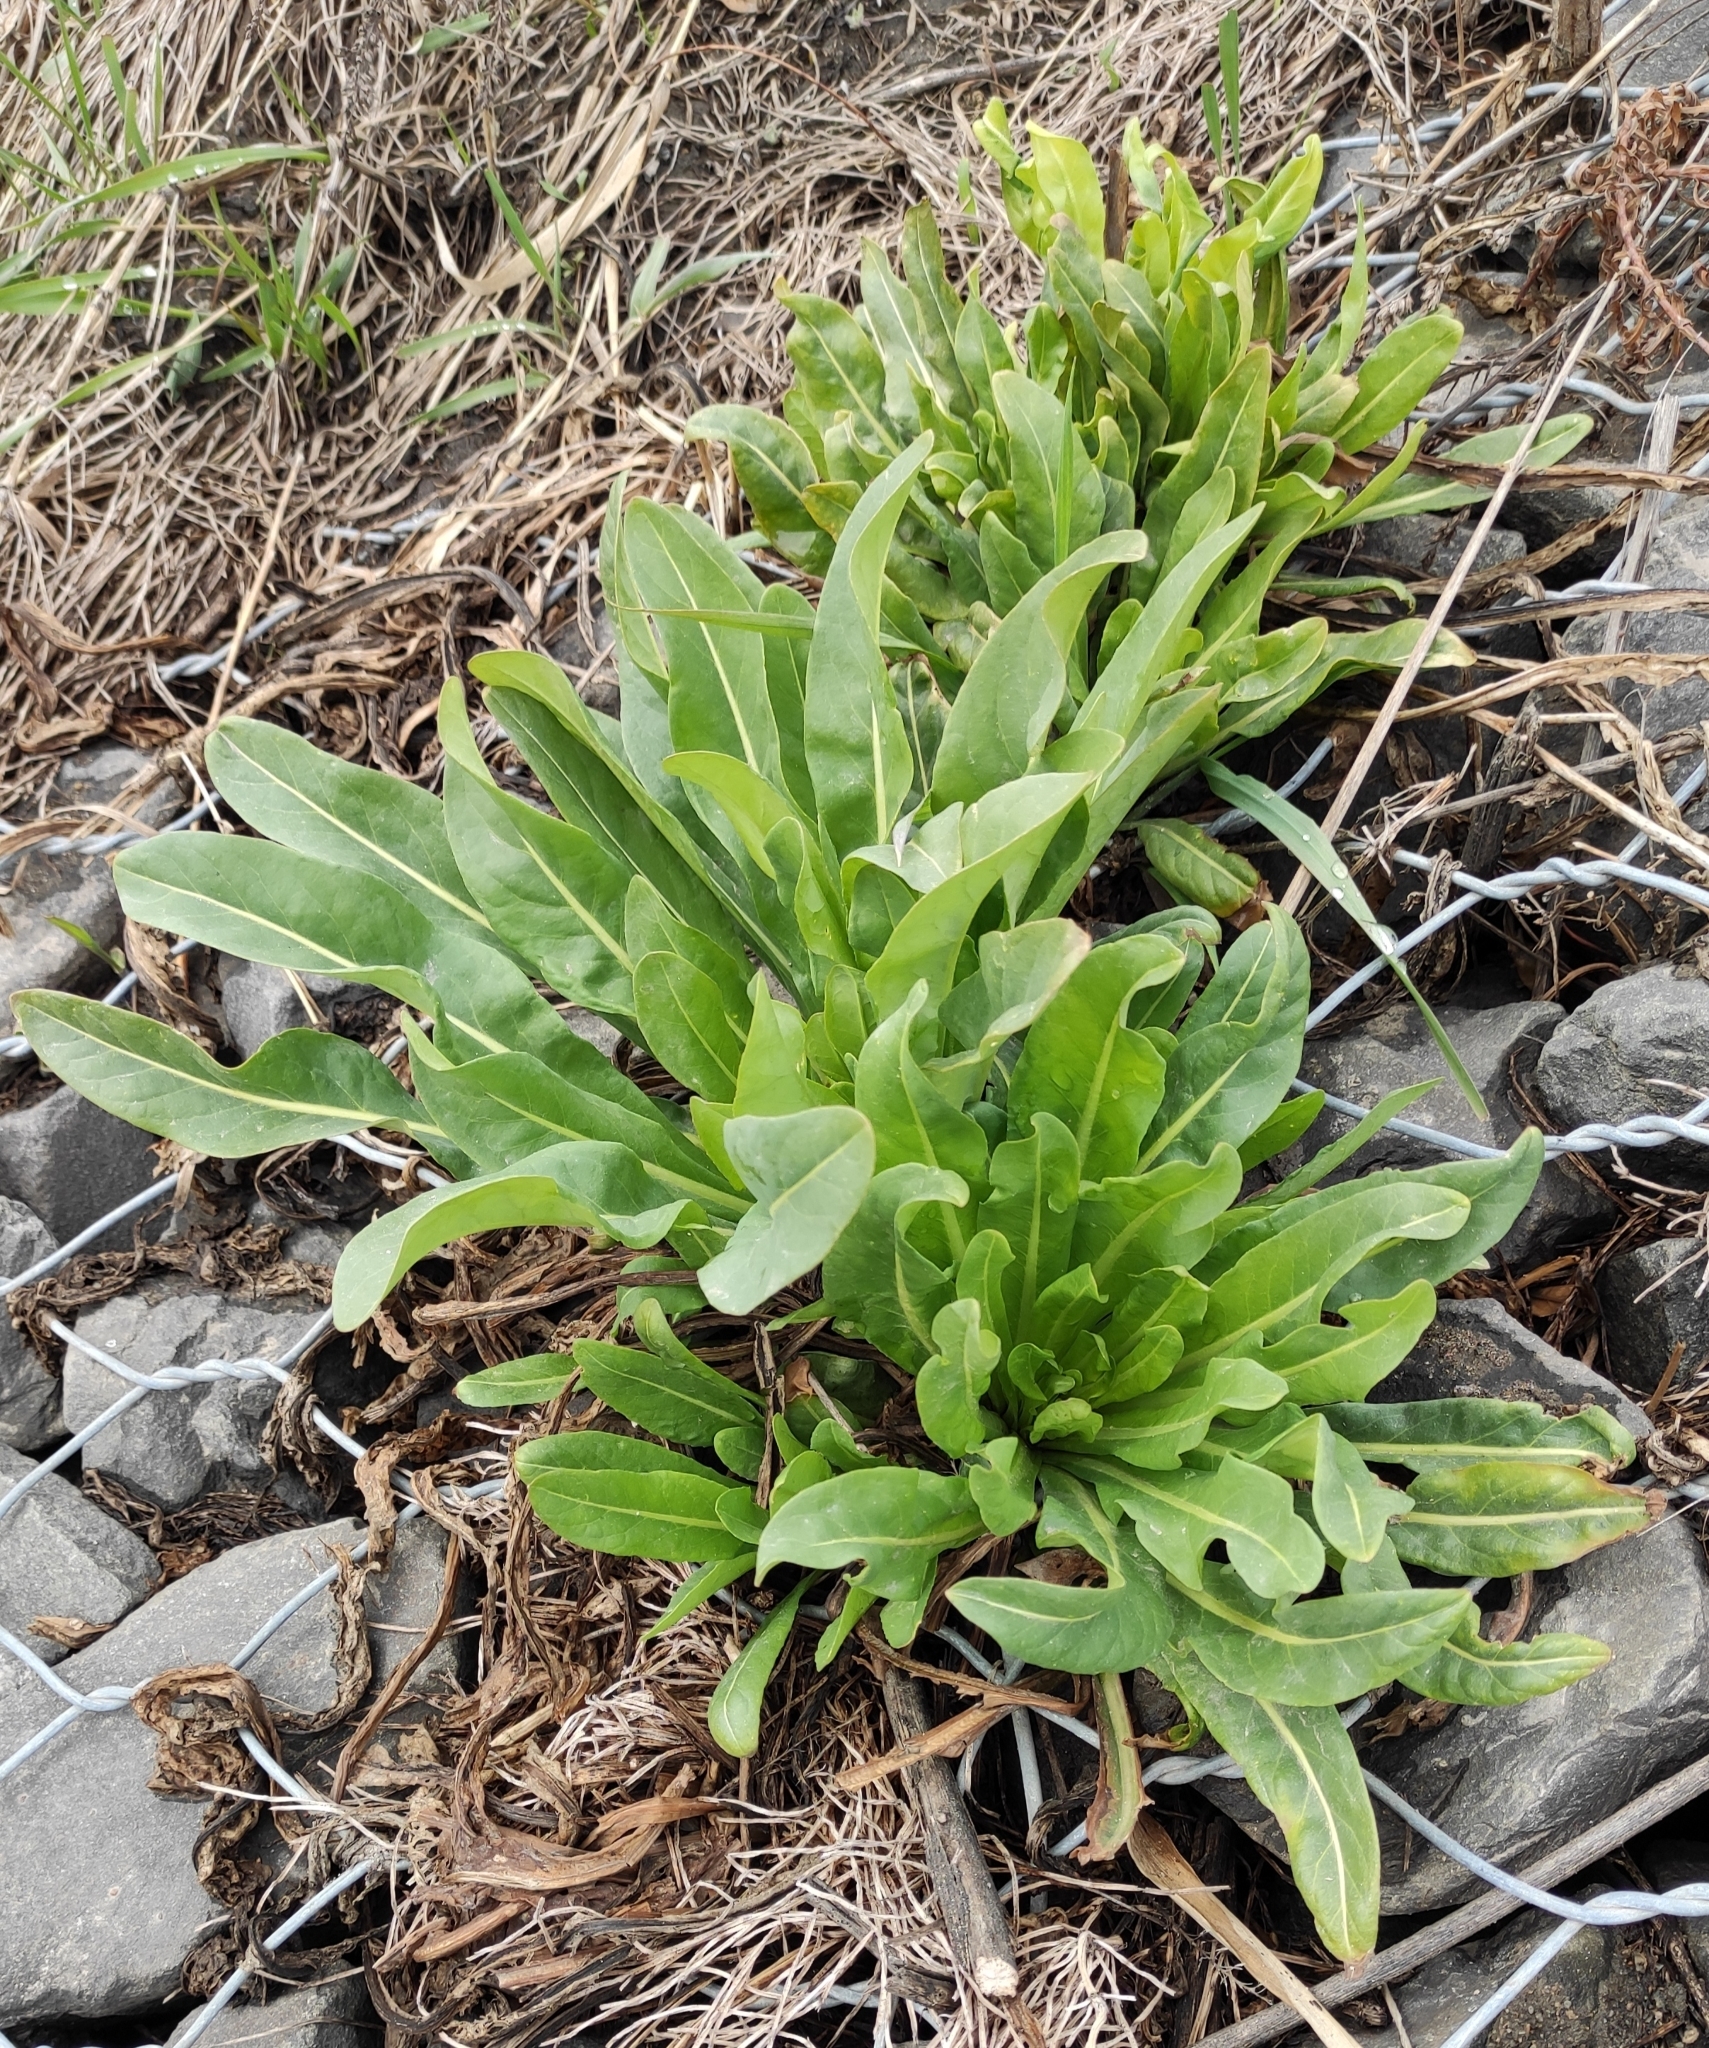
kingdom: Plantae
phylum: Tracheophyta
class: Magnoliopsida
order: Brassicales
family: Brassicaceae
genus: Isatis
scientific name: Isatis tinctoria
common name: Woad
